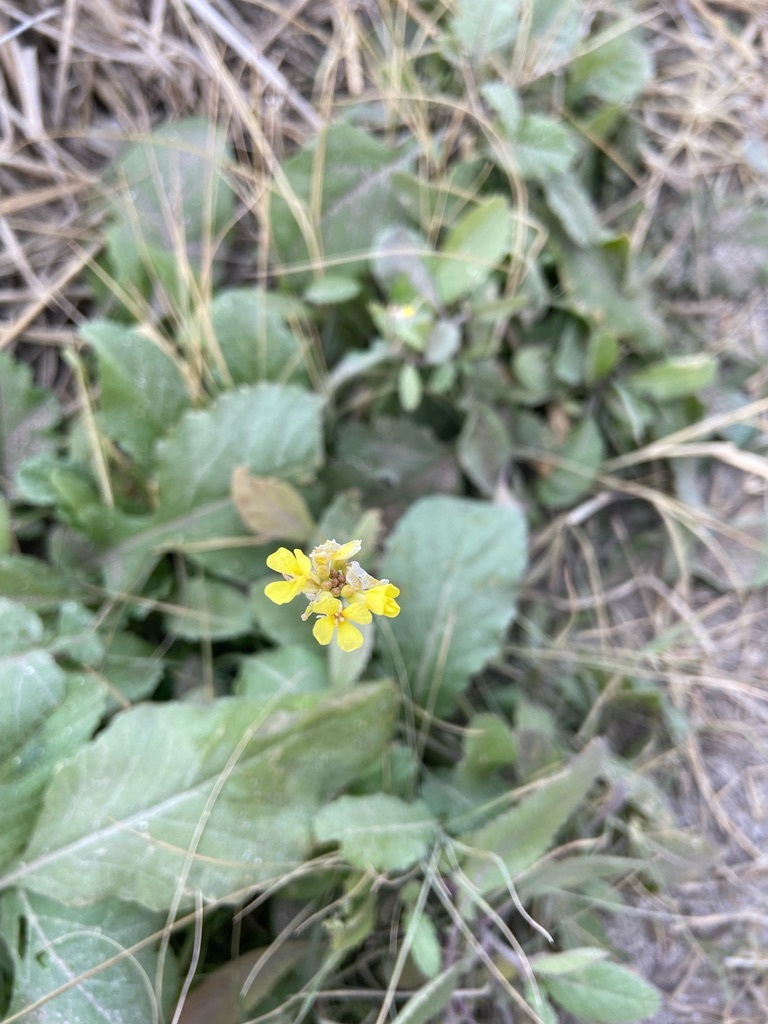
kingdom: Plantae
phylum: Tracheophyta
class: Magnoliopsida
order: Brassicales
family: Brassicaceae
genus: Rapistrum
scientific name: Rapistrum rugosum
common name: Annual bastardcabbage
